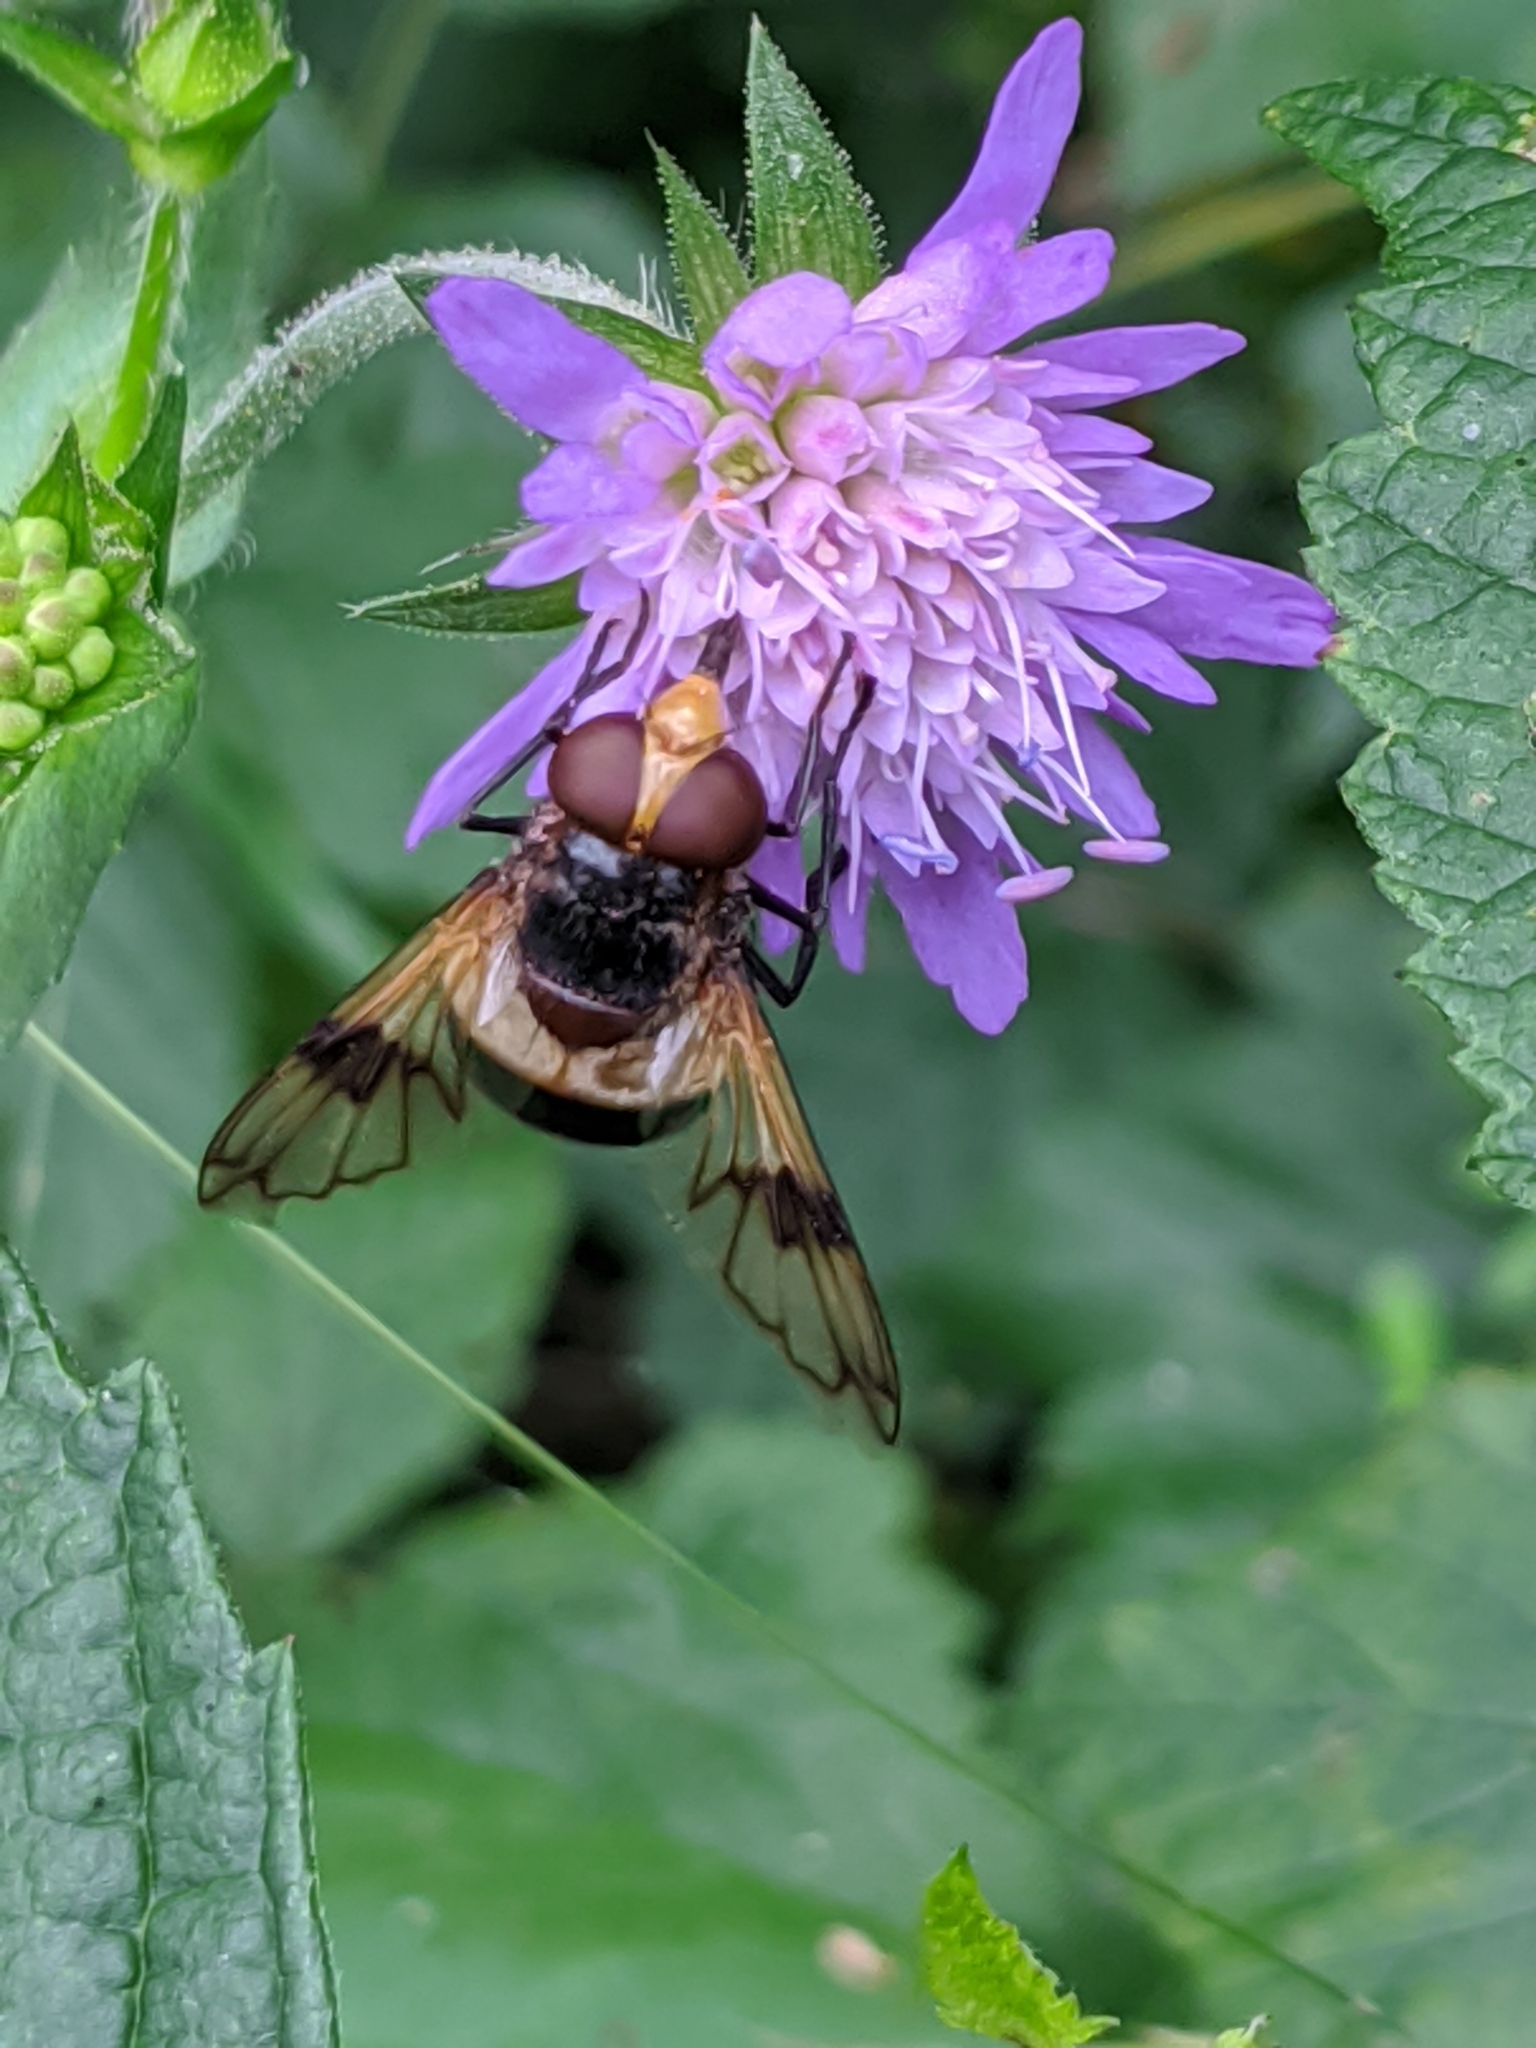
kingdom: Animalia
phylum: Arthropoda
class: Insecta
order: Diptera
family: Syrphidae
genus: Volucella
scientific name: Volucella pellucens
